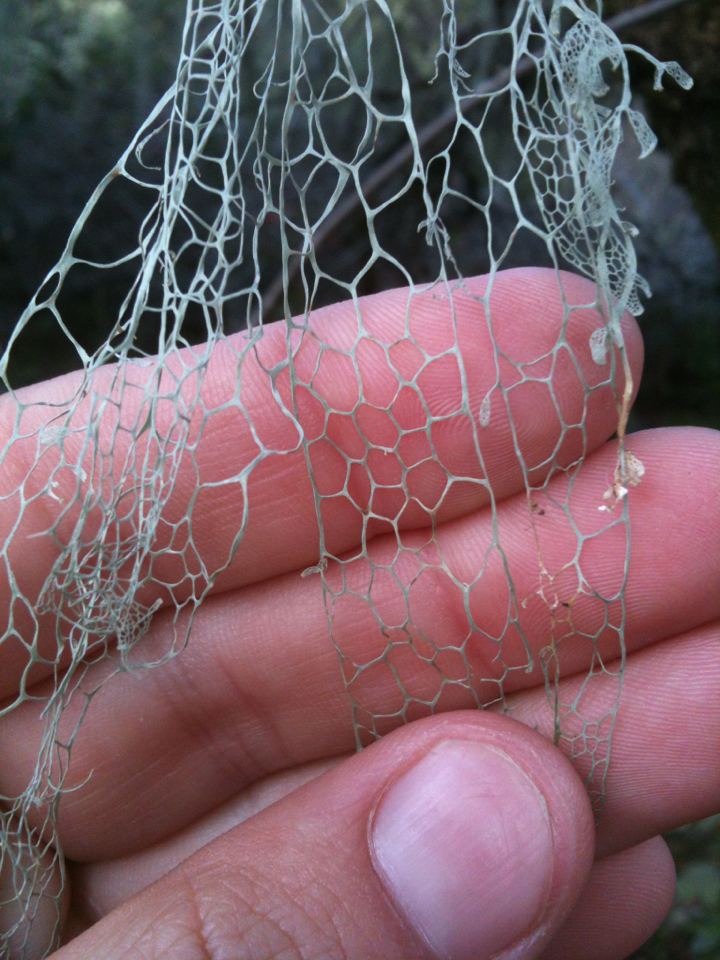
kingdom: Fungi
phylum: Ascomycota
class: Lecanoromycetes
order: Lecanorales
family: Ramalinaceae
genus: Ramalina
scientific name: Ramalina menziesii
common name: Lace lichen
